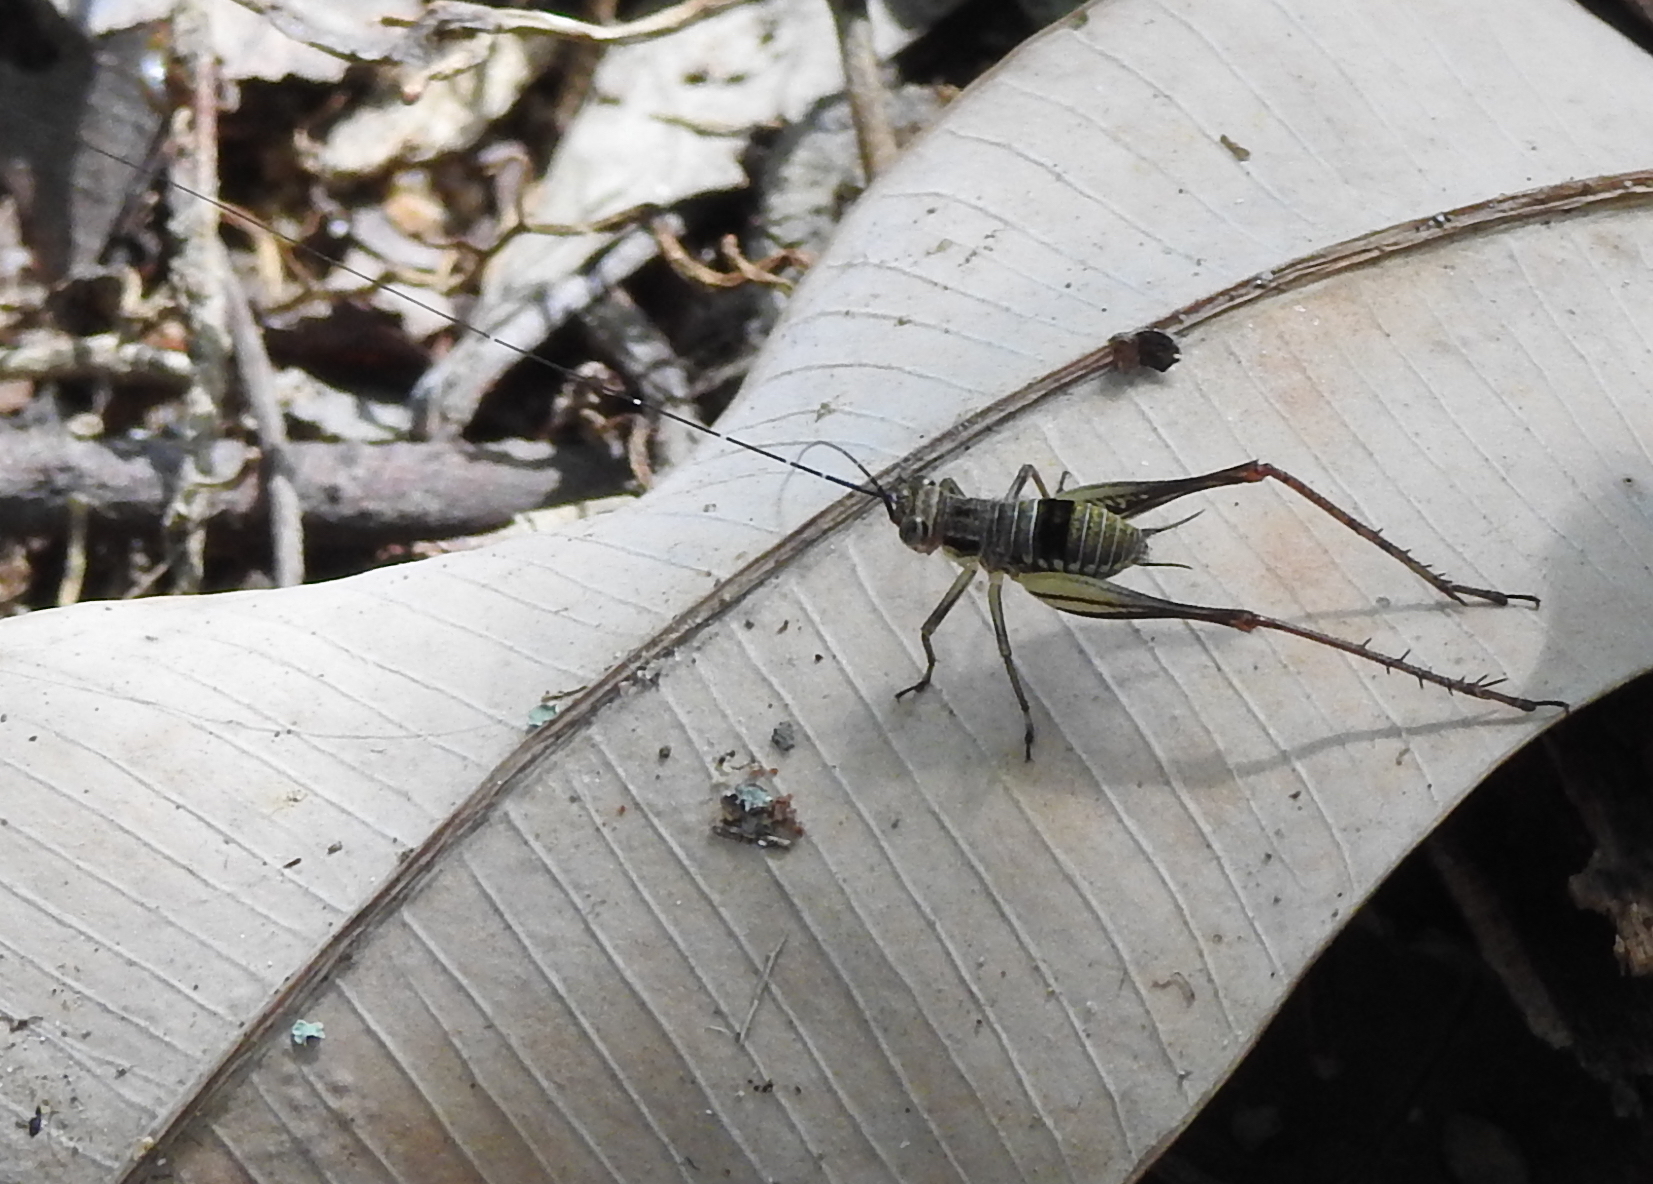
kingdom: Animalia
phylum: Arthropoda
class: Insecta
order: Orthoptera
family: Gryllidae
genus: Nisitrus
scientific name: Nisitrus malaya
